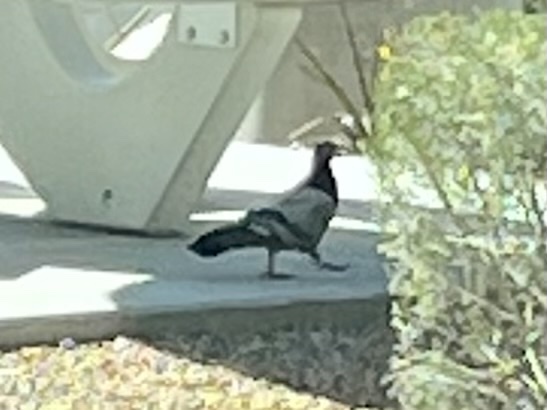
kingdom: Animalia
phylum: Chordata
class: Aves
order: Columbiformes
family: Columbidae
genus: Columba
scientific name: Columba livia
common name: Rock pigeon
